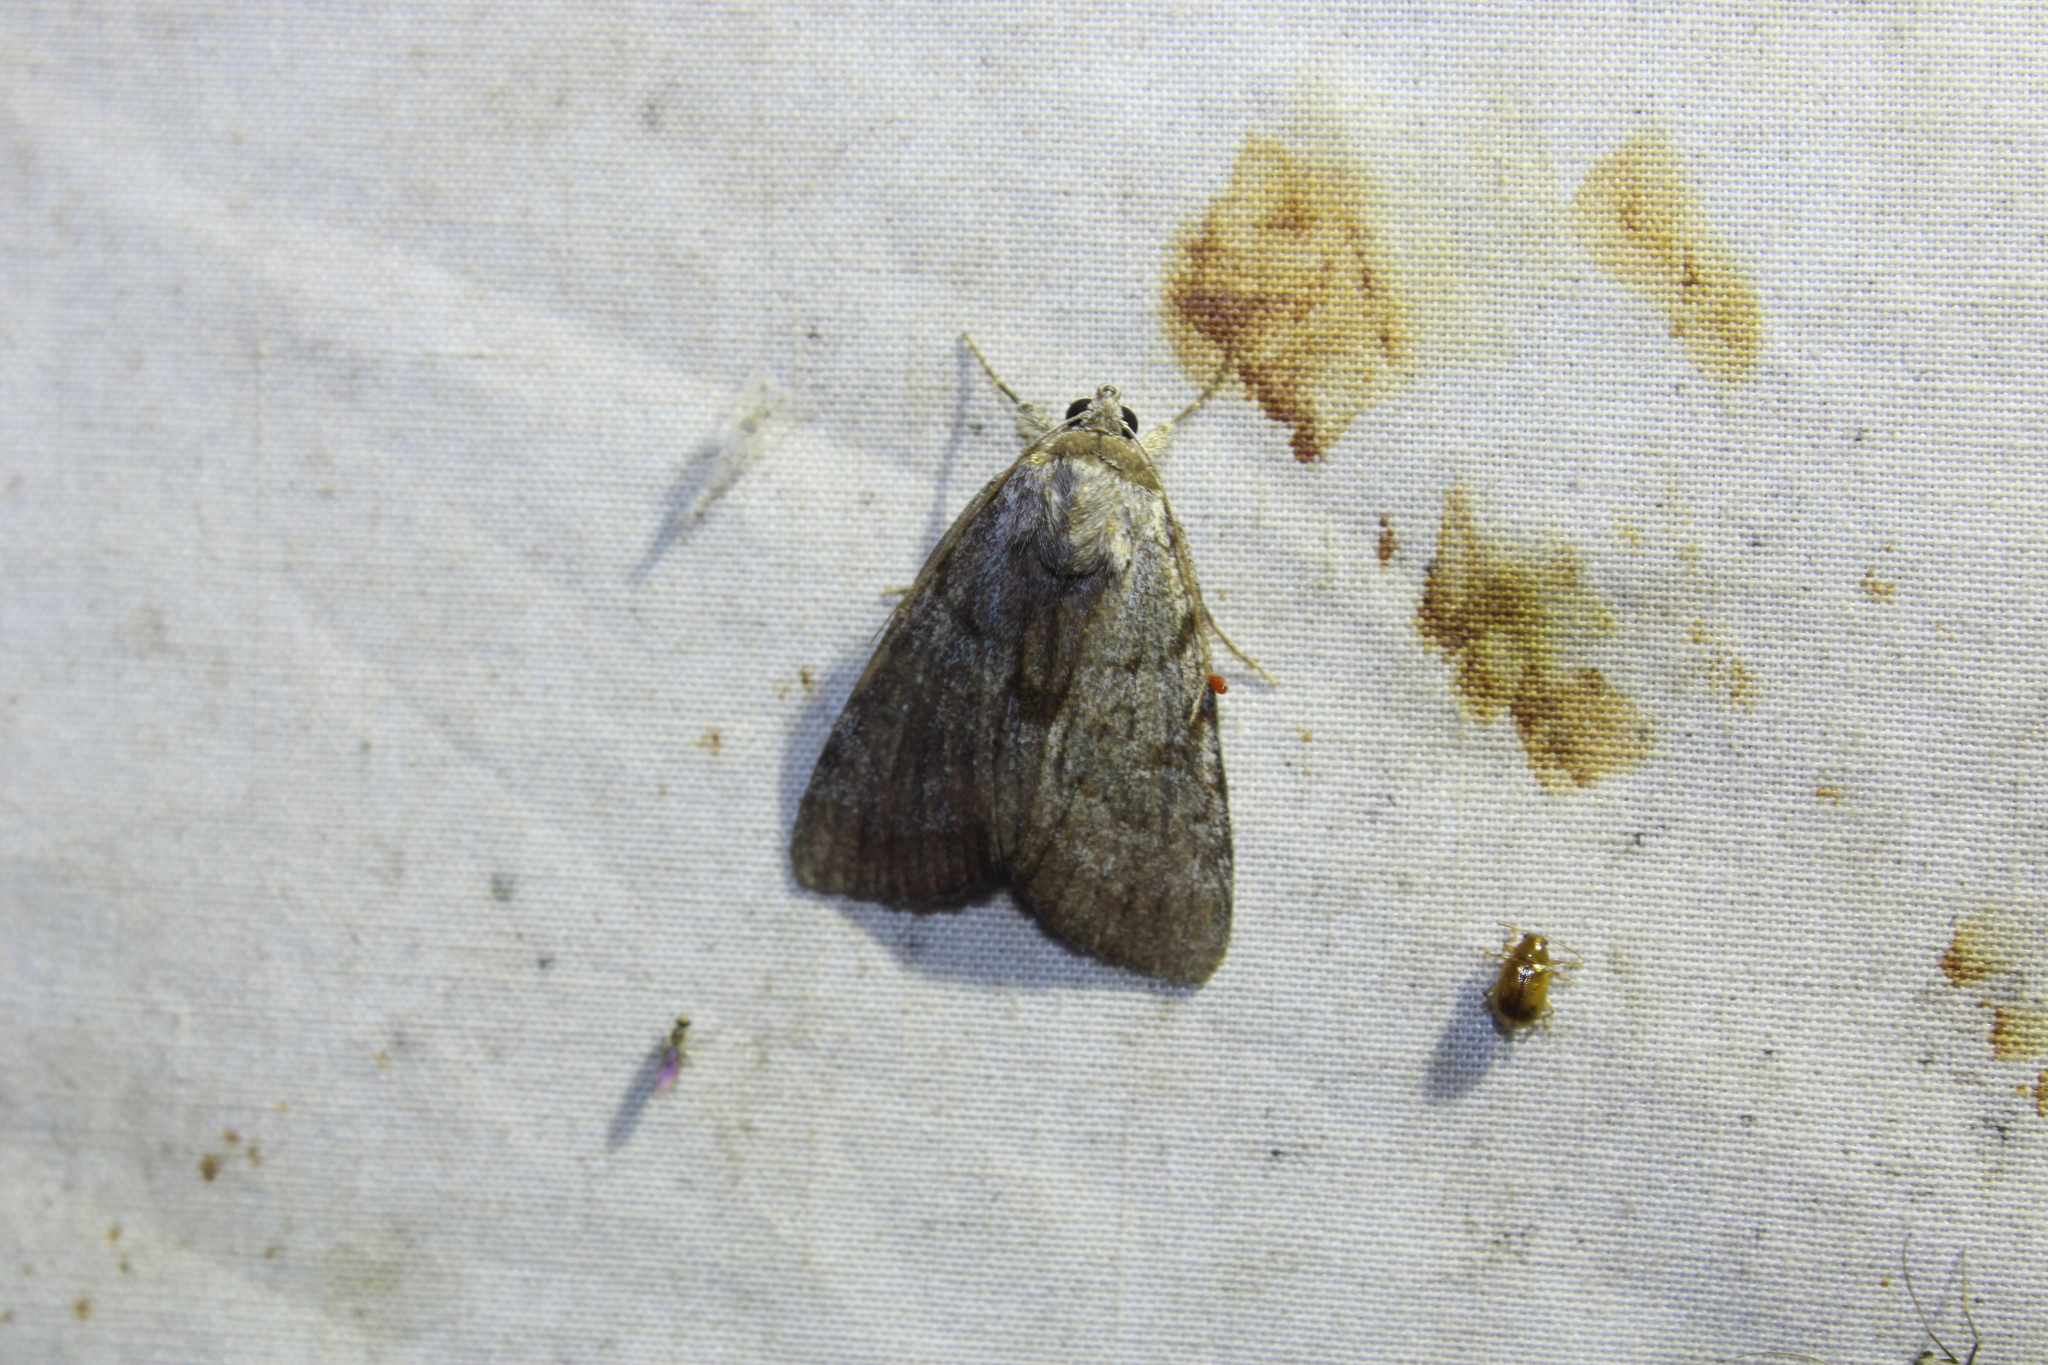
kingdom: Animalia
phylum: Arthropoda
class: Insecta
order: Lepidoptera
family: Erebidae
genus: Catocala
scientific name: Catocala sordida
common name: Sordid underwing
